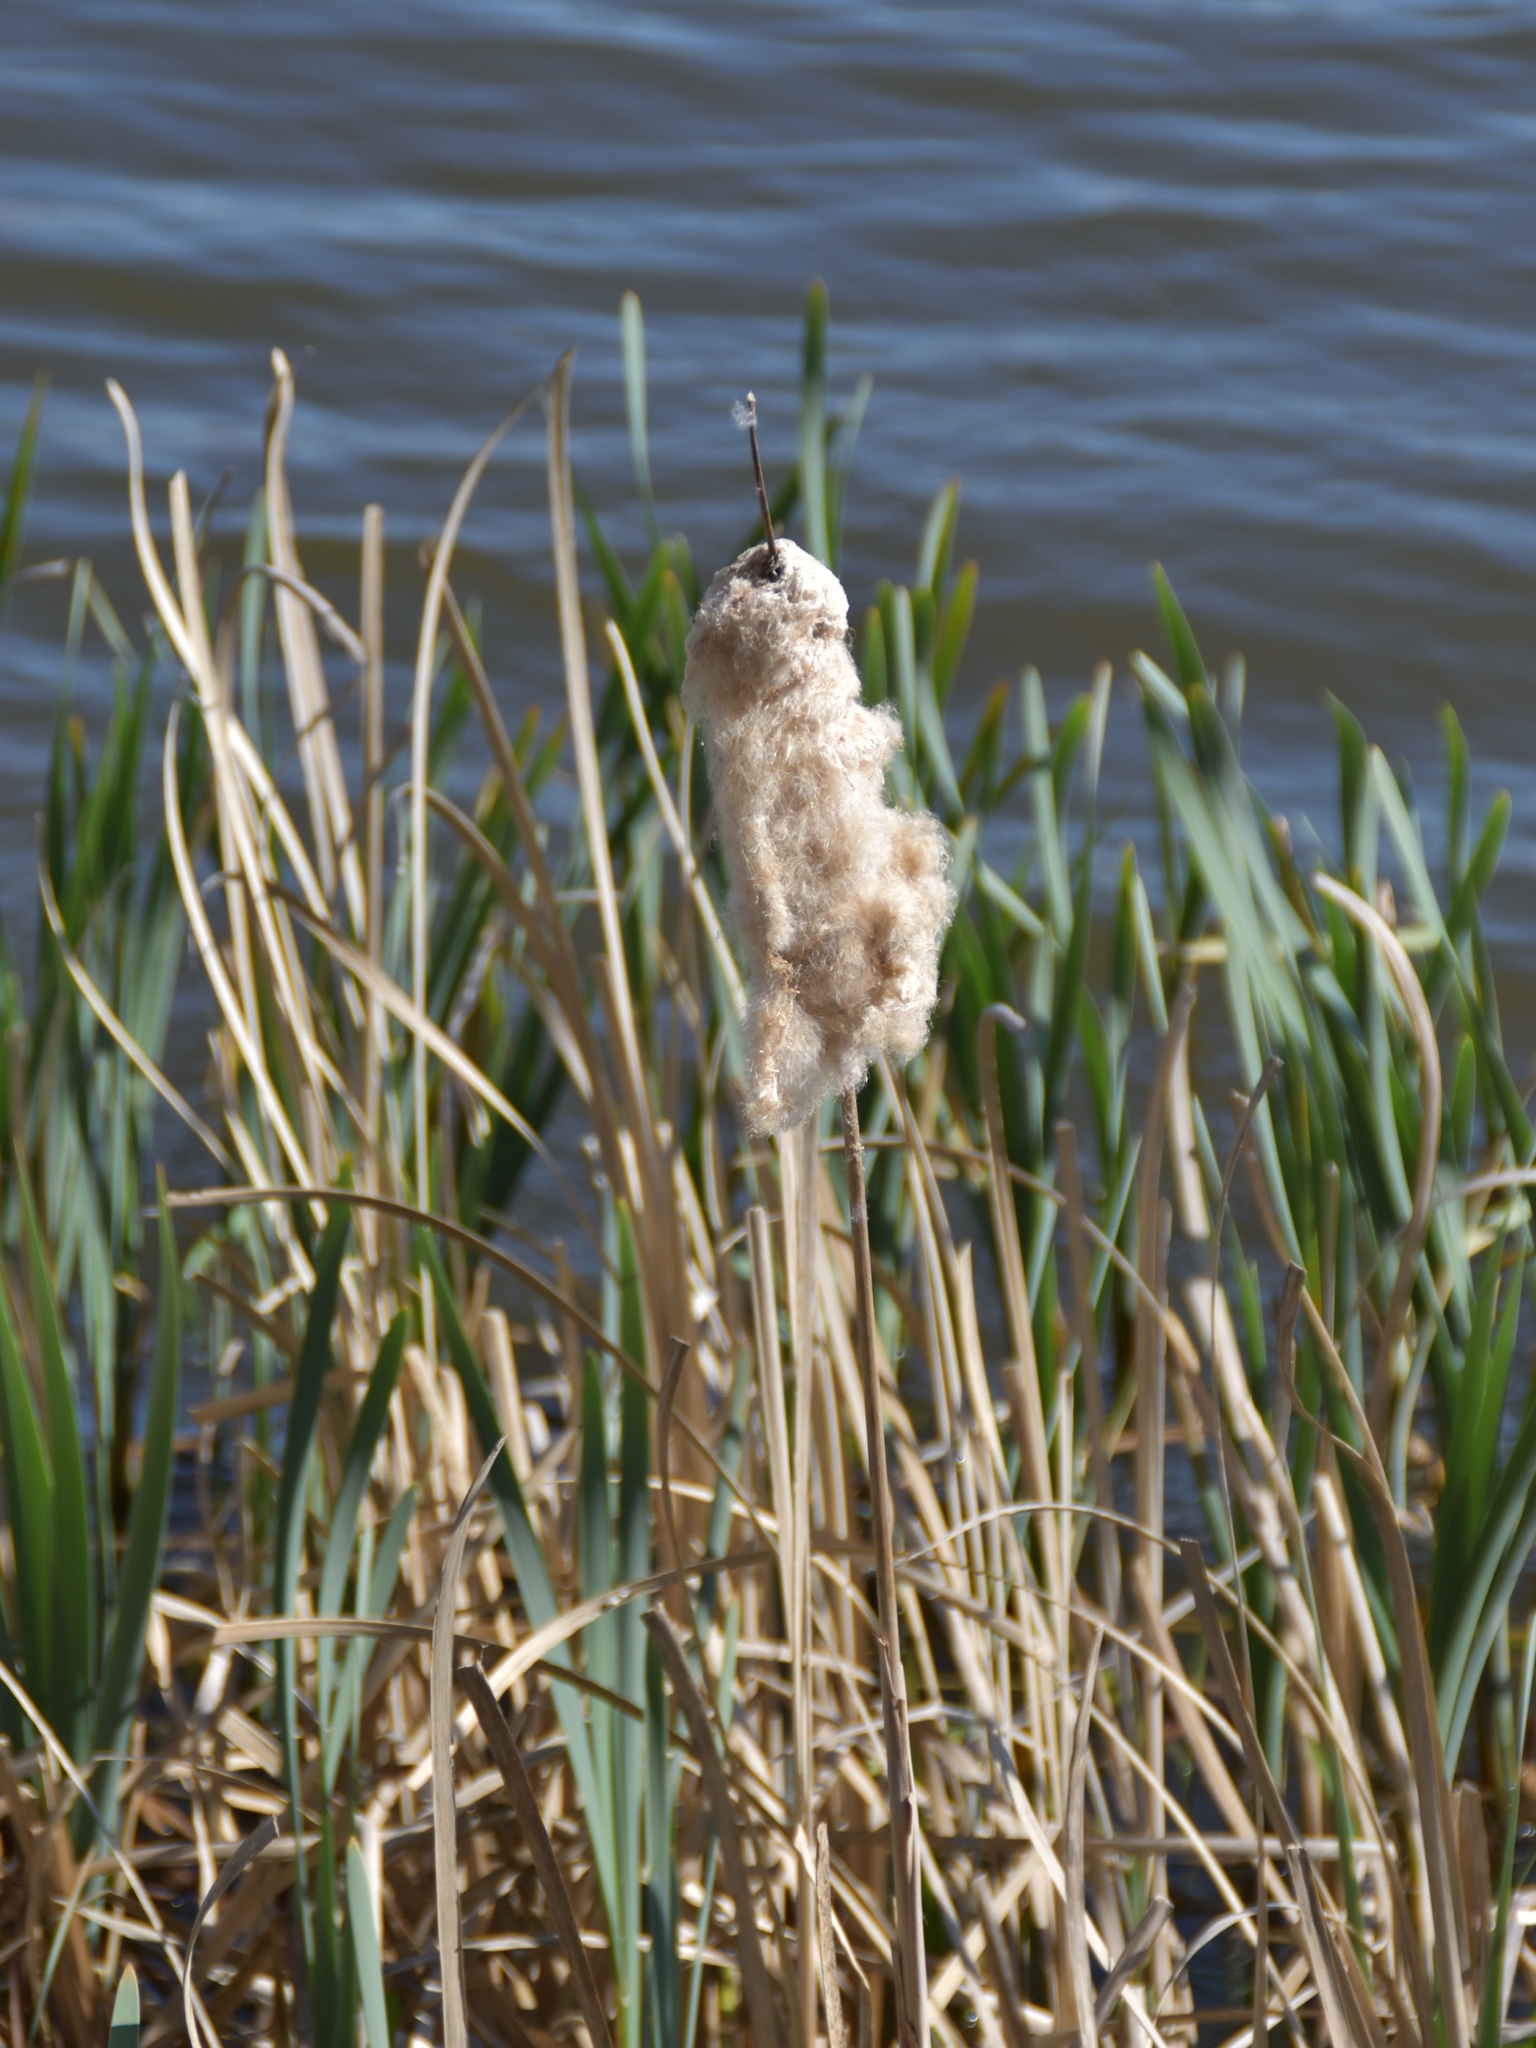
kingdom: Plantae
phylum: Tracheophyta
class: Liliopsida
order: Poales
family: Typhaceae
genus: Typha
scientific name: Typha latifolia
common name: Broadleaf cattail
